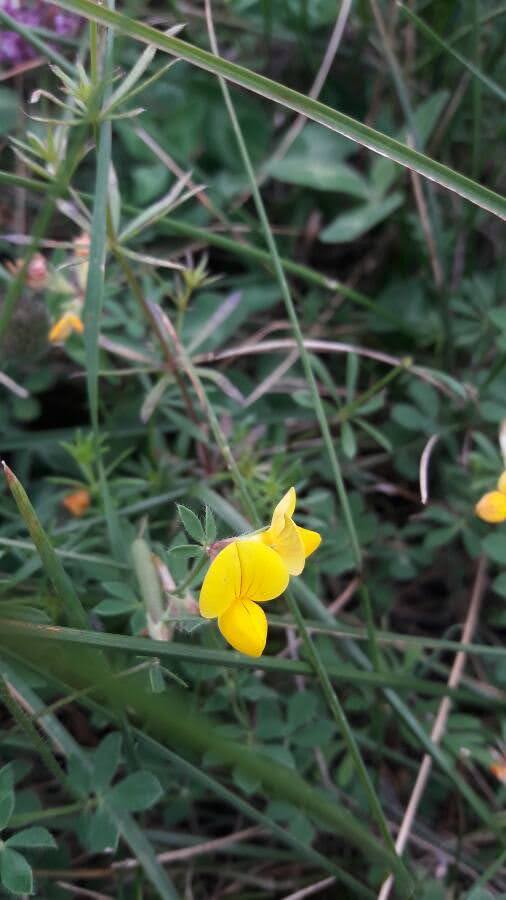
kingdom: Plantae
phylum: Tracheophyta
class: Magnoliopsida
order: Fabales
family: Fabaceae
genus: Lotus
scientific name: Lotus corniculatus
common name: Common bird's-foot-trefoil
